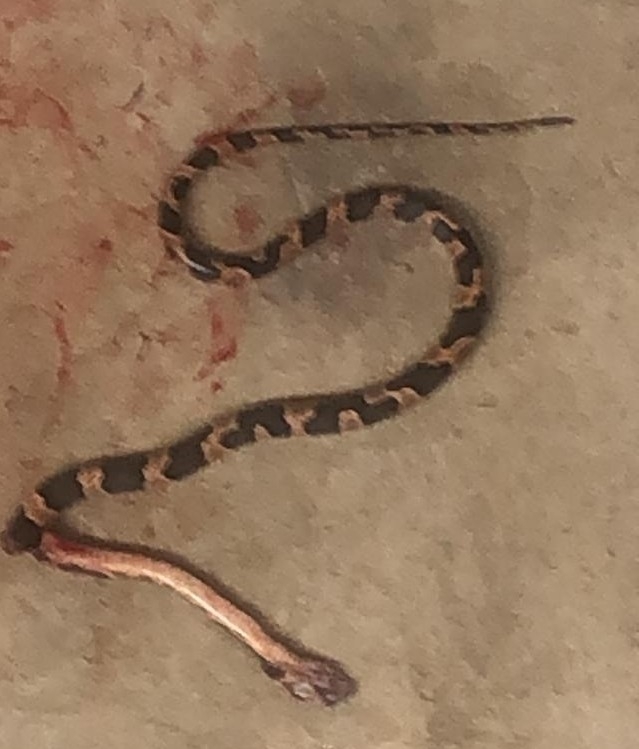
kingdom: Animalia
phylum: Chordata
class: Squamata
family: Colubridae
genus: Leptodeira
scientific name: Leptodeira frenata
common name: Rainforest cat-eyed snake
